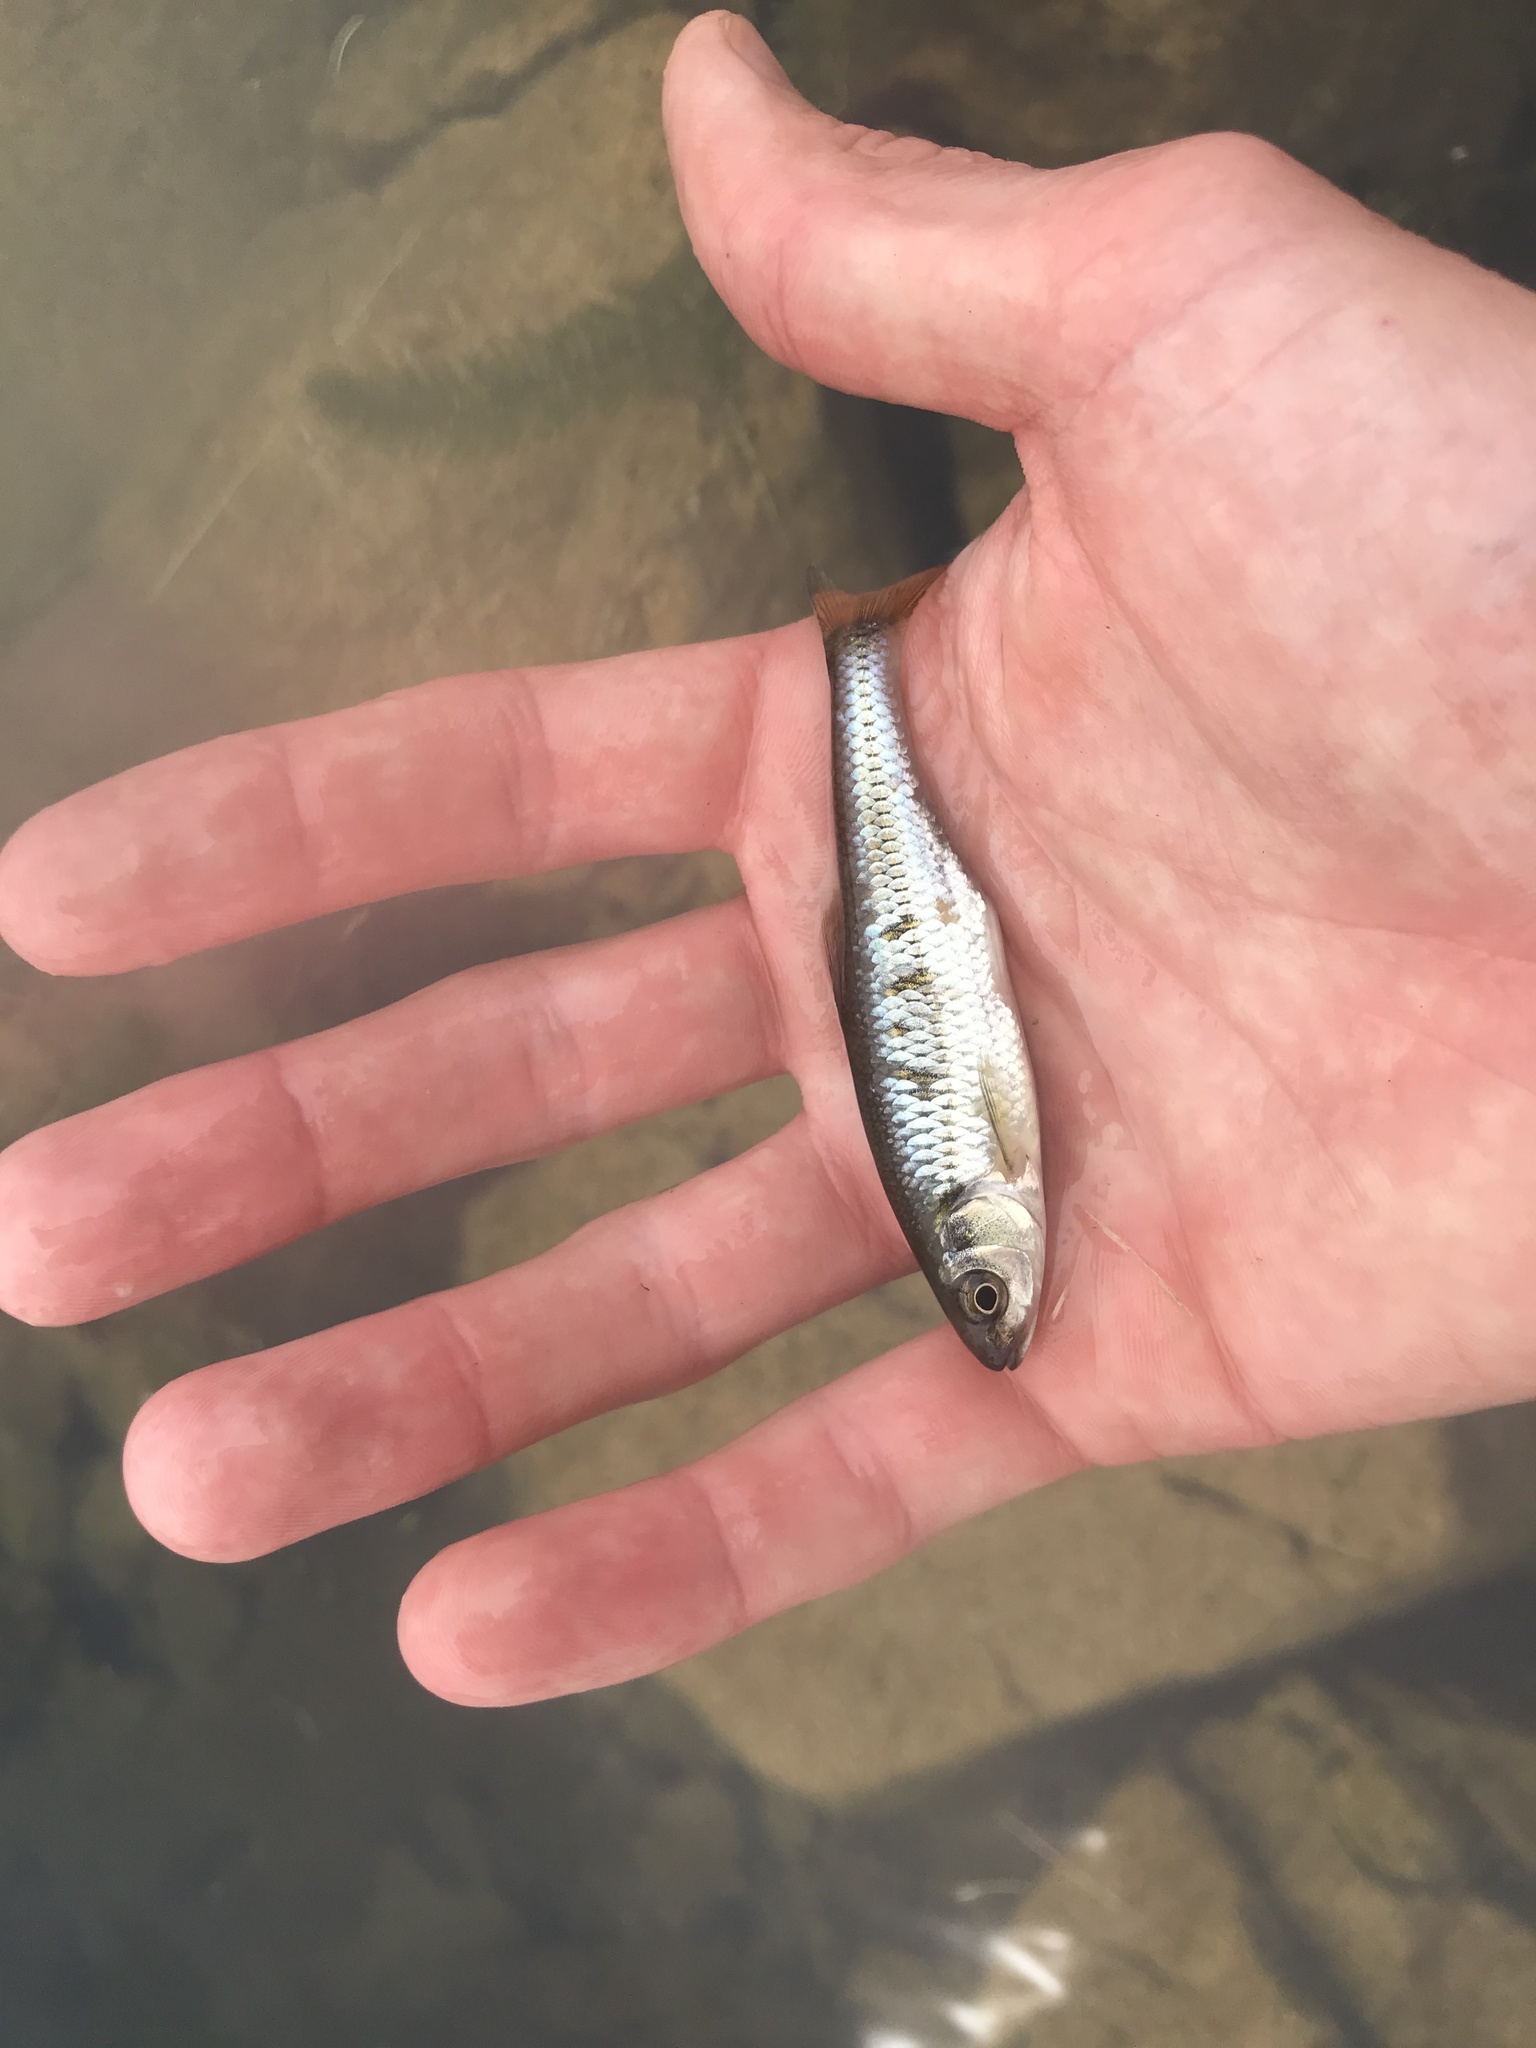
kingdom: Animalia
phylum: Chordata
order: Cypriniformes
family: Cyprinidae
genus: Luxilus
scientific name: Luxilus cornutus
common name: Common shiner
